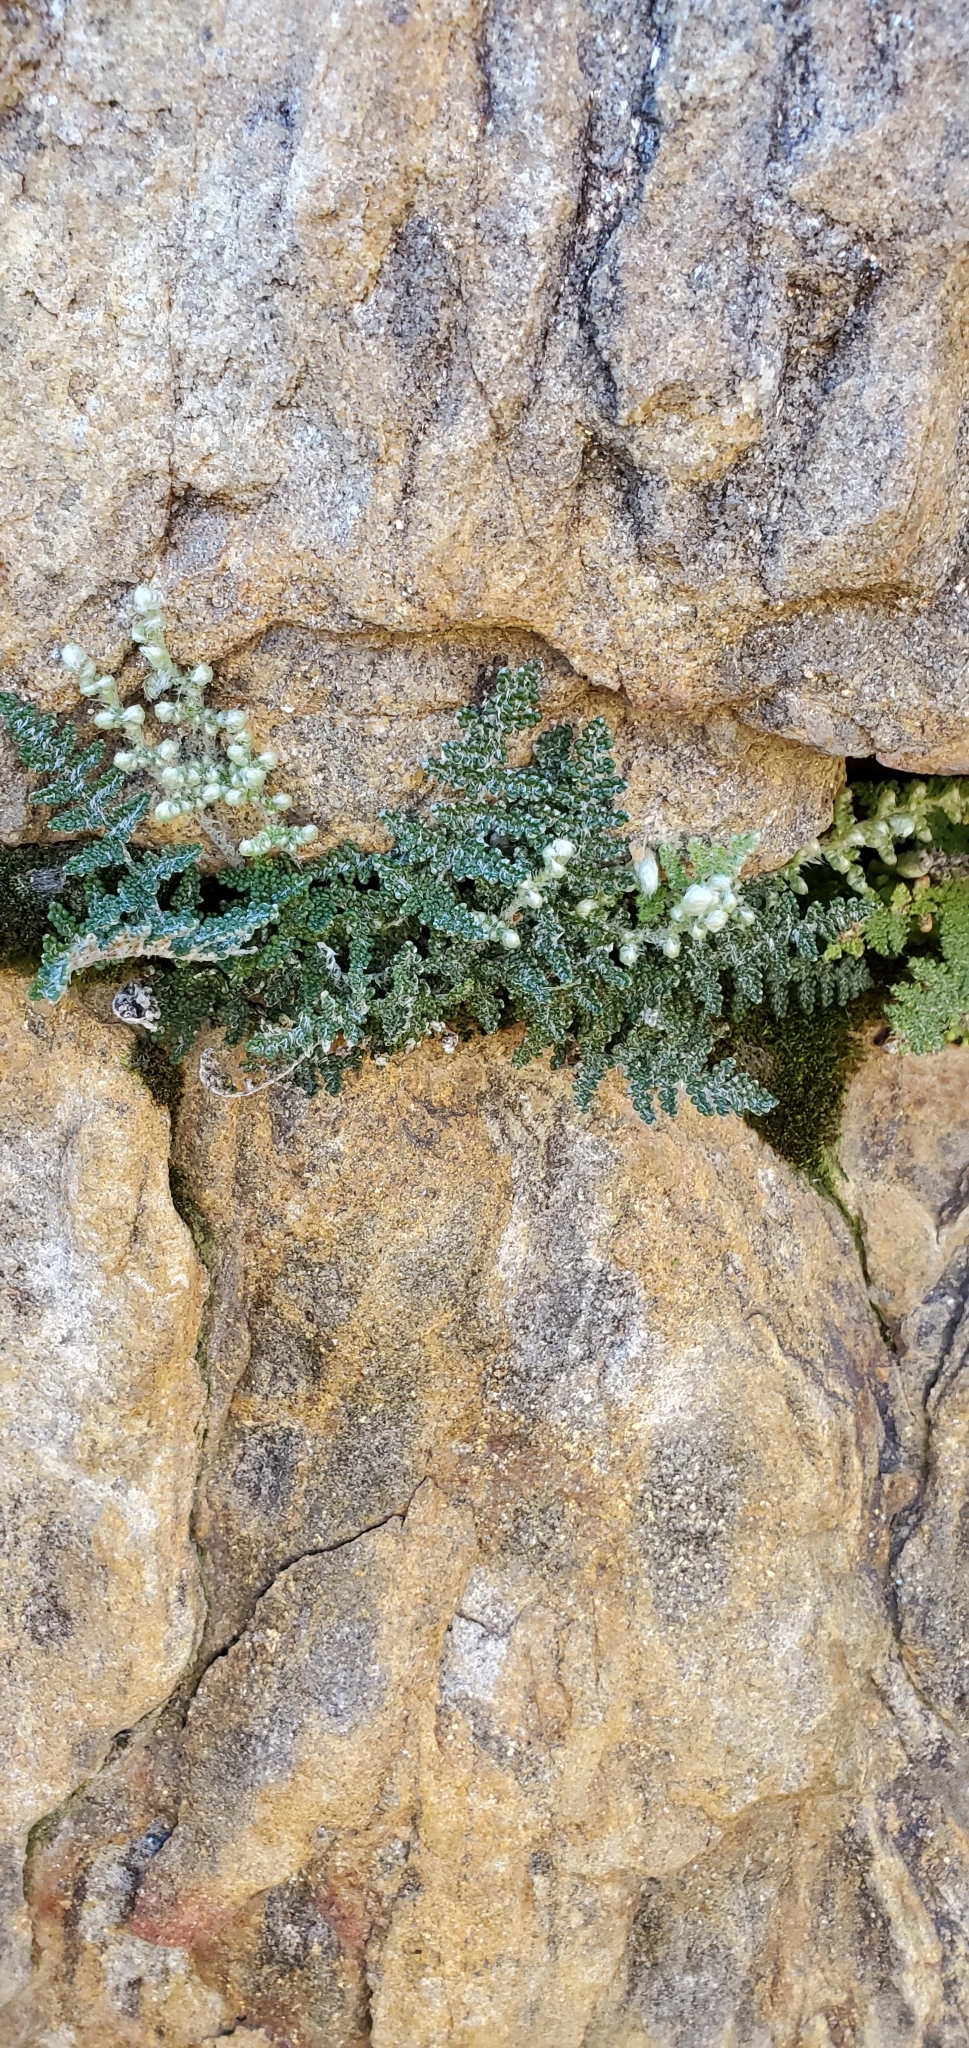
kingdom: Plantae
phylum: Tracheophyta
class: Polypodiopsida
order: Polypodiales
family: Pteridaceae
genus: Myriopteris
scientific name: Myriopteris covillei
